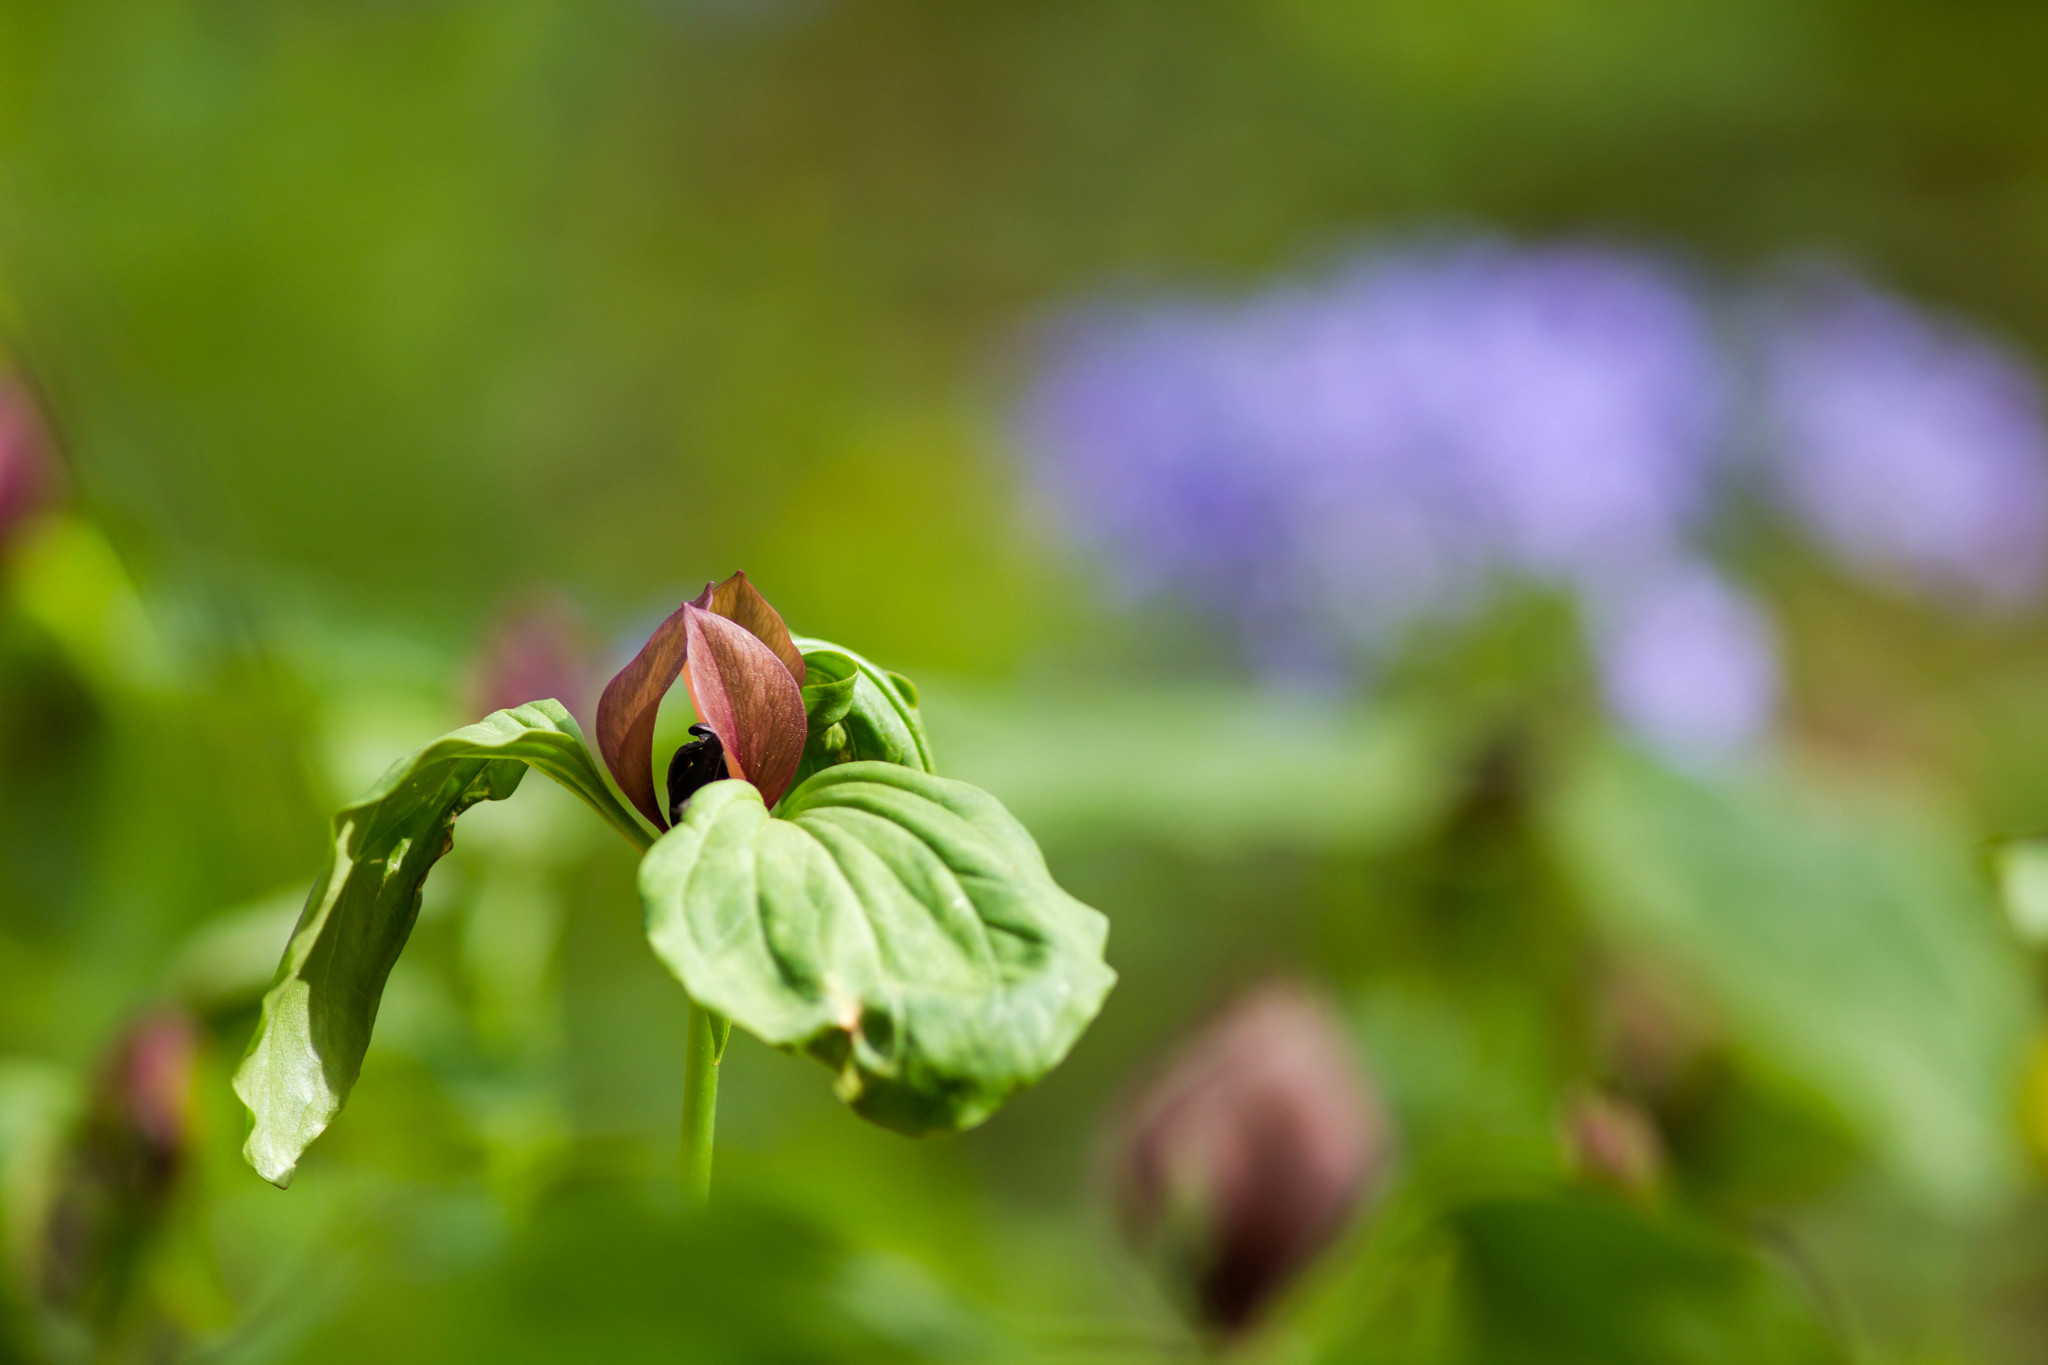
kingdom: Plantae
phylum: Tracheophyta
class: Liliopsida
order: Liliales
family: Melanthiaceae
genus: Trillium
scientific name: Trillium recurvatum
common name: Bloody butcher
